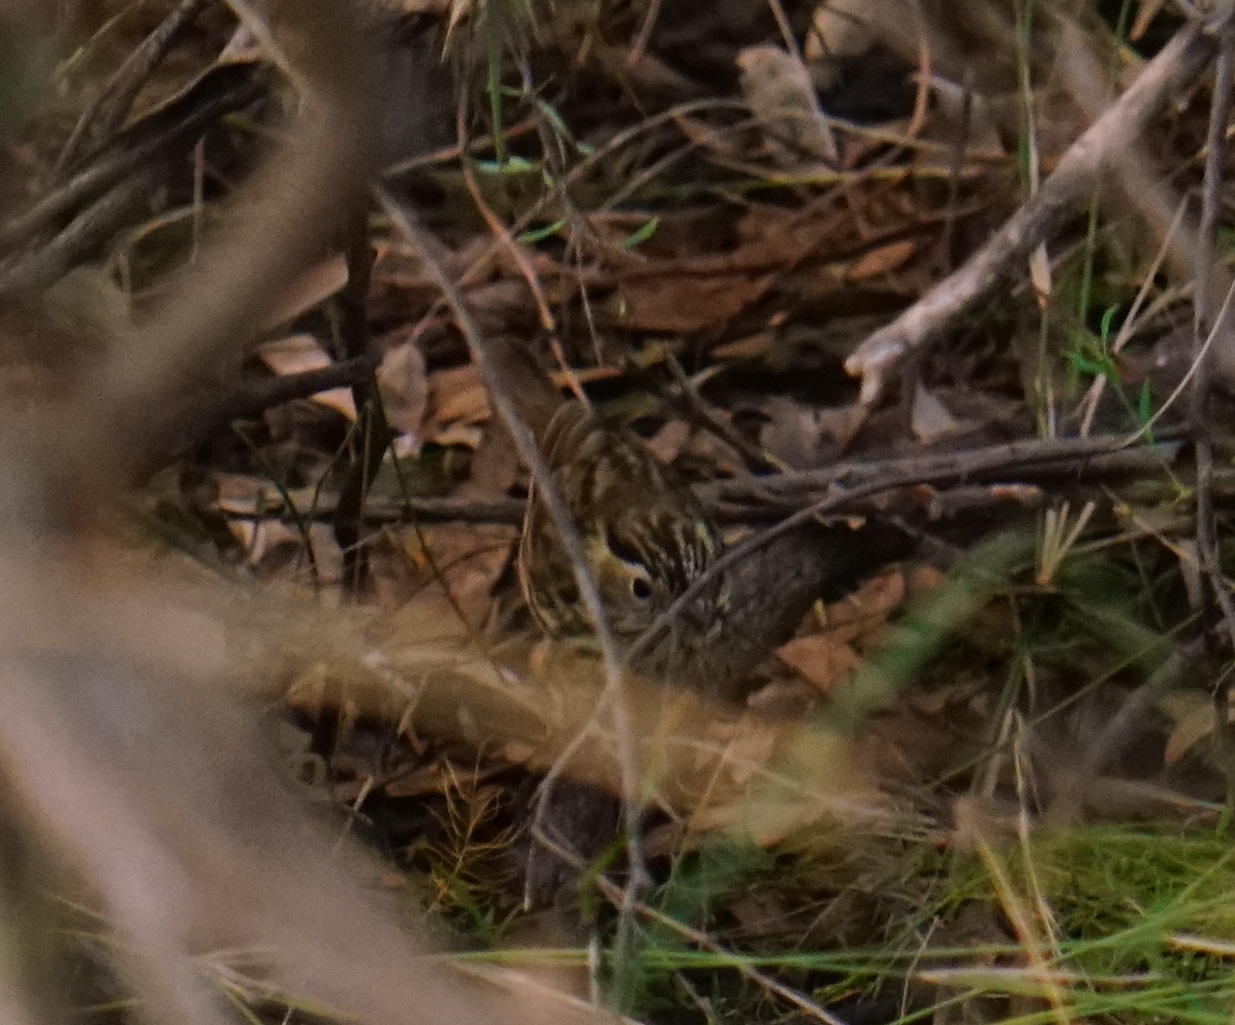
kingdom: Animalia
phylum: Chordata
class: Aves
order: Passeriformes
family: Acanthizidae
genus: Pyrrholaemus
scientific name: Pyrrholaemus sagittatus
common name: Speckled warbler
